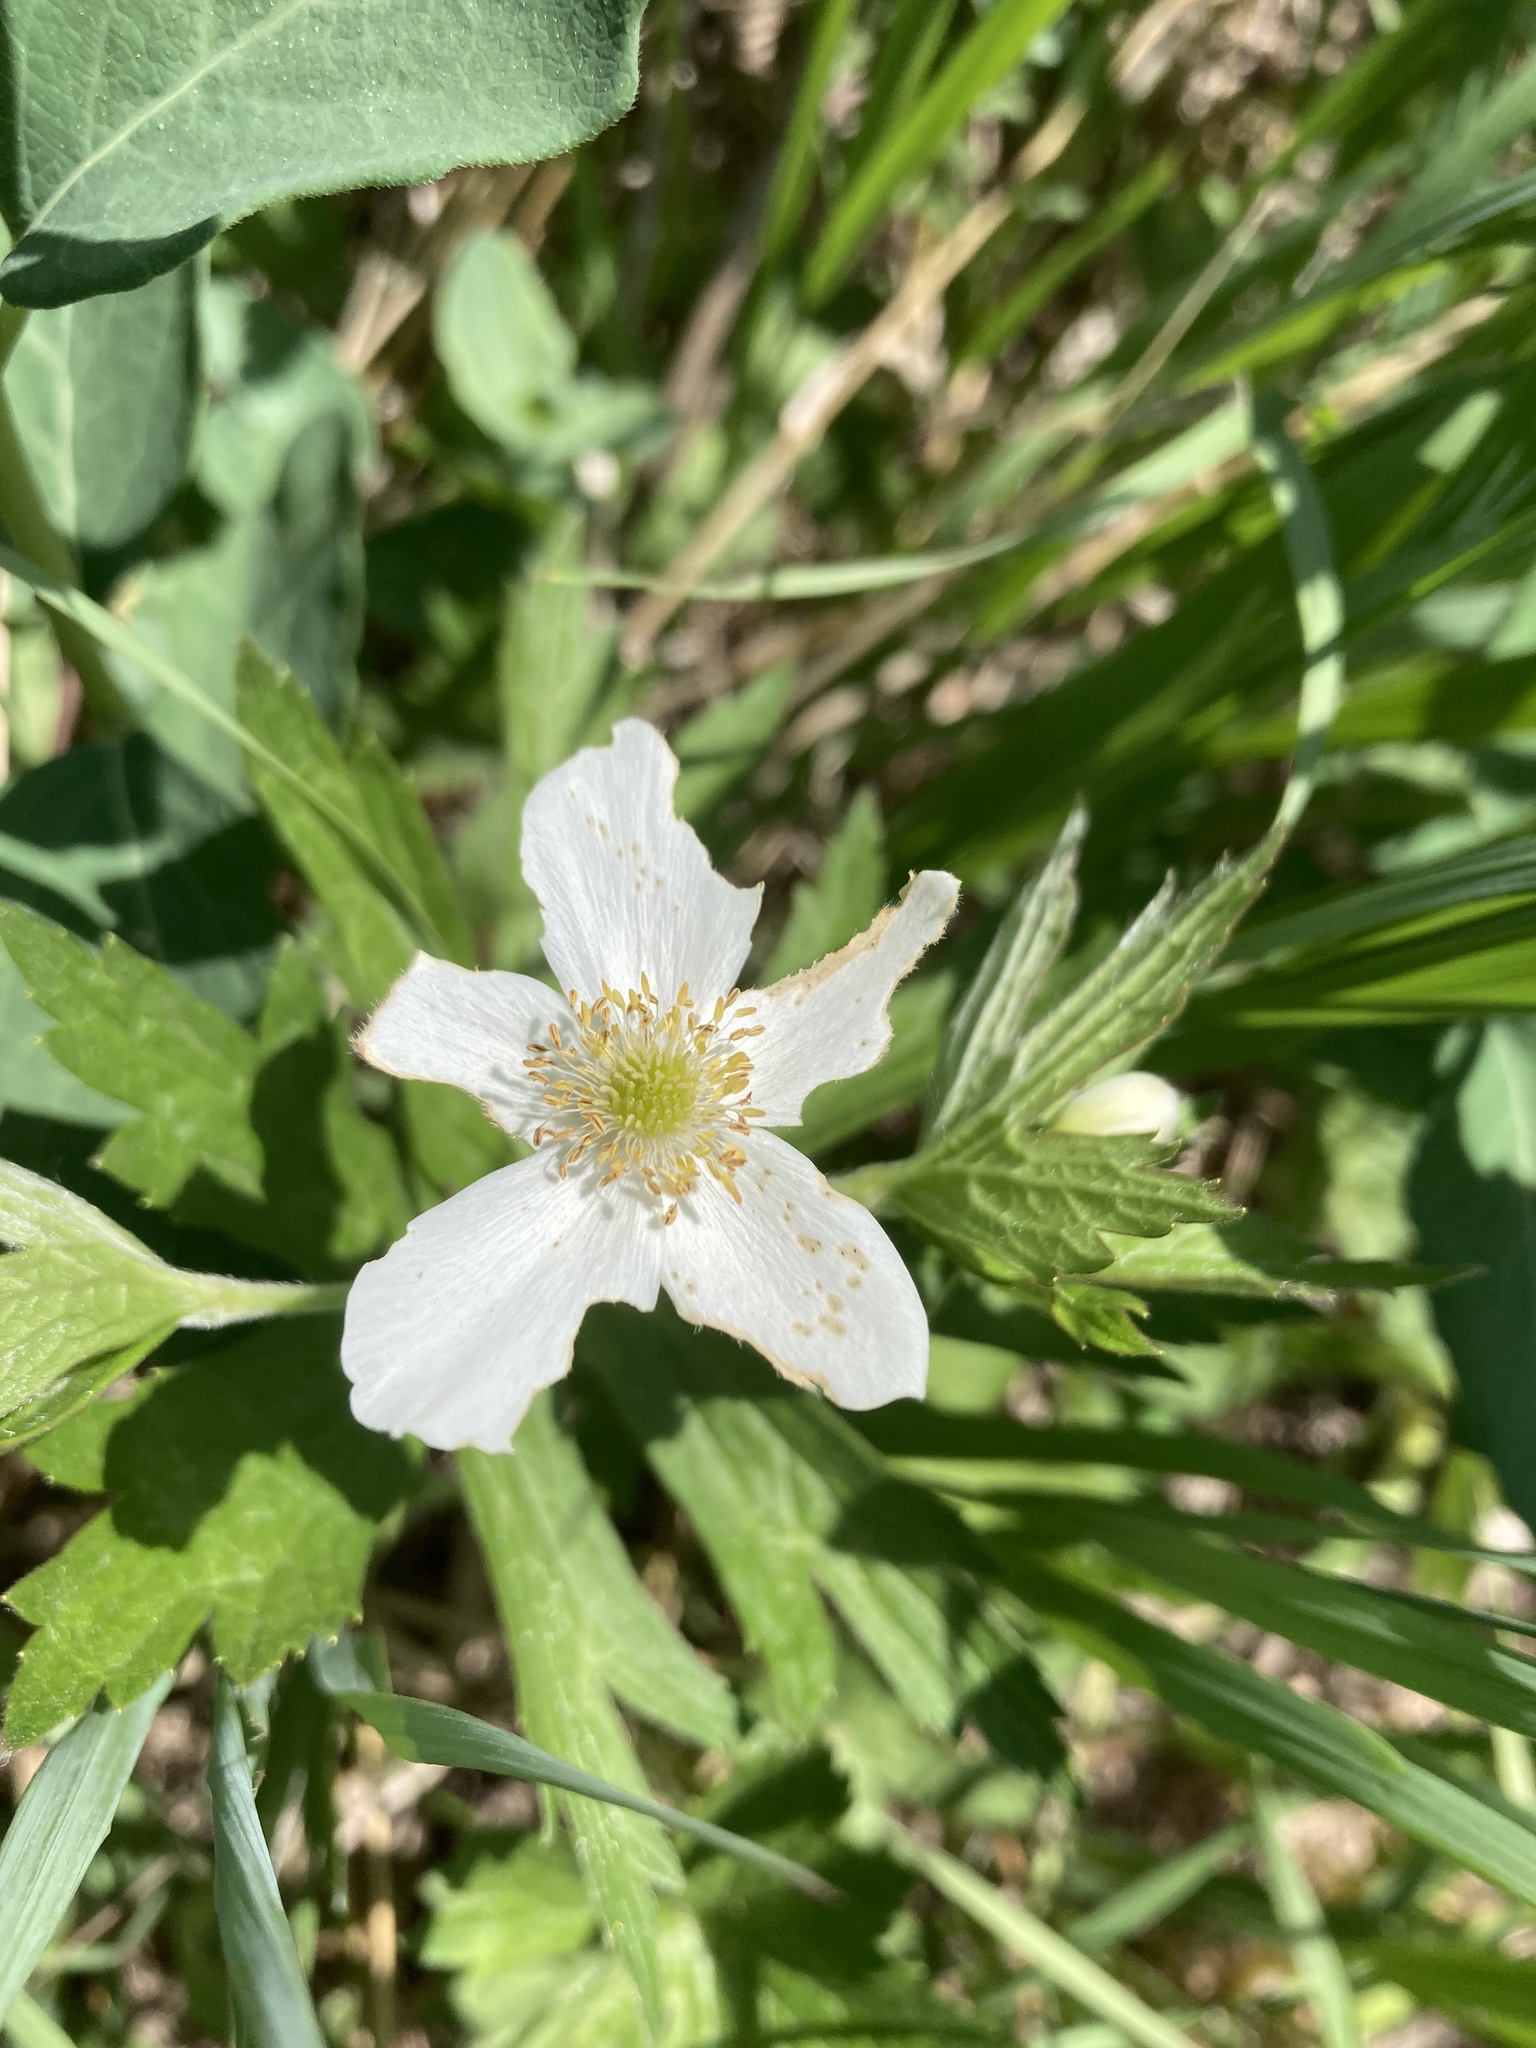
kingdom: Plantae
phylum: Tracheophyta
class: Magnoliopsida
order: Ranunculales
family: Ranunculaceae
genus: Anemonastrum
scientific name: Anemonastrum canadense
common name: Canada anemone
